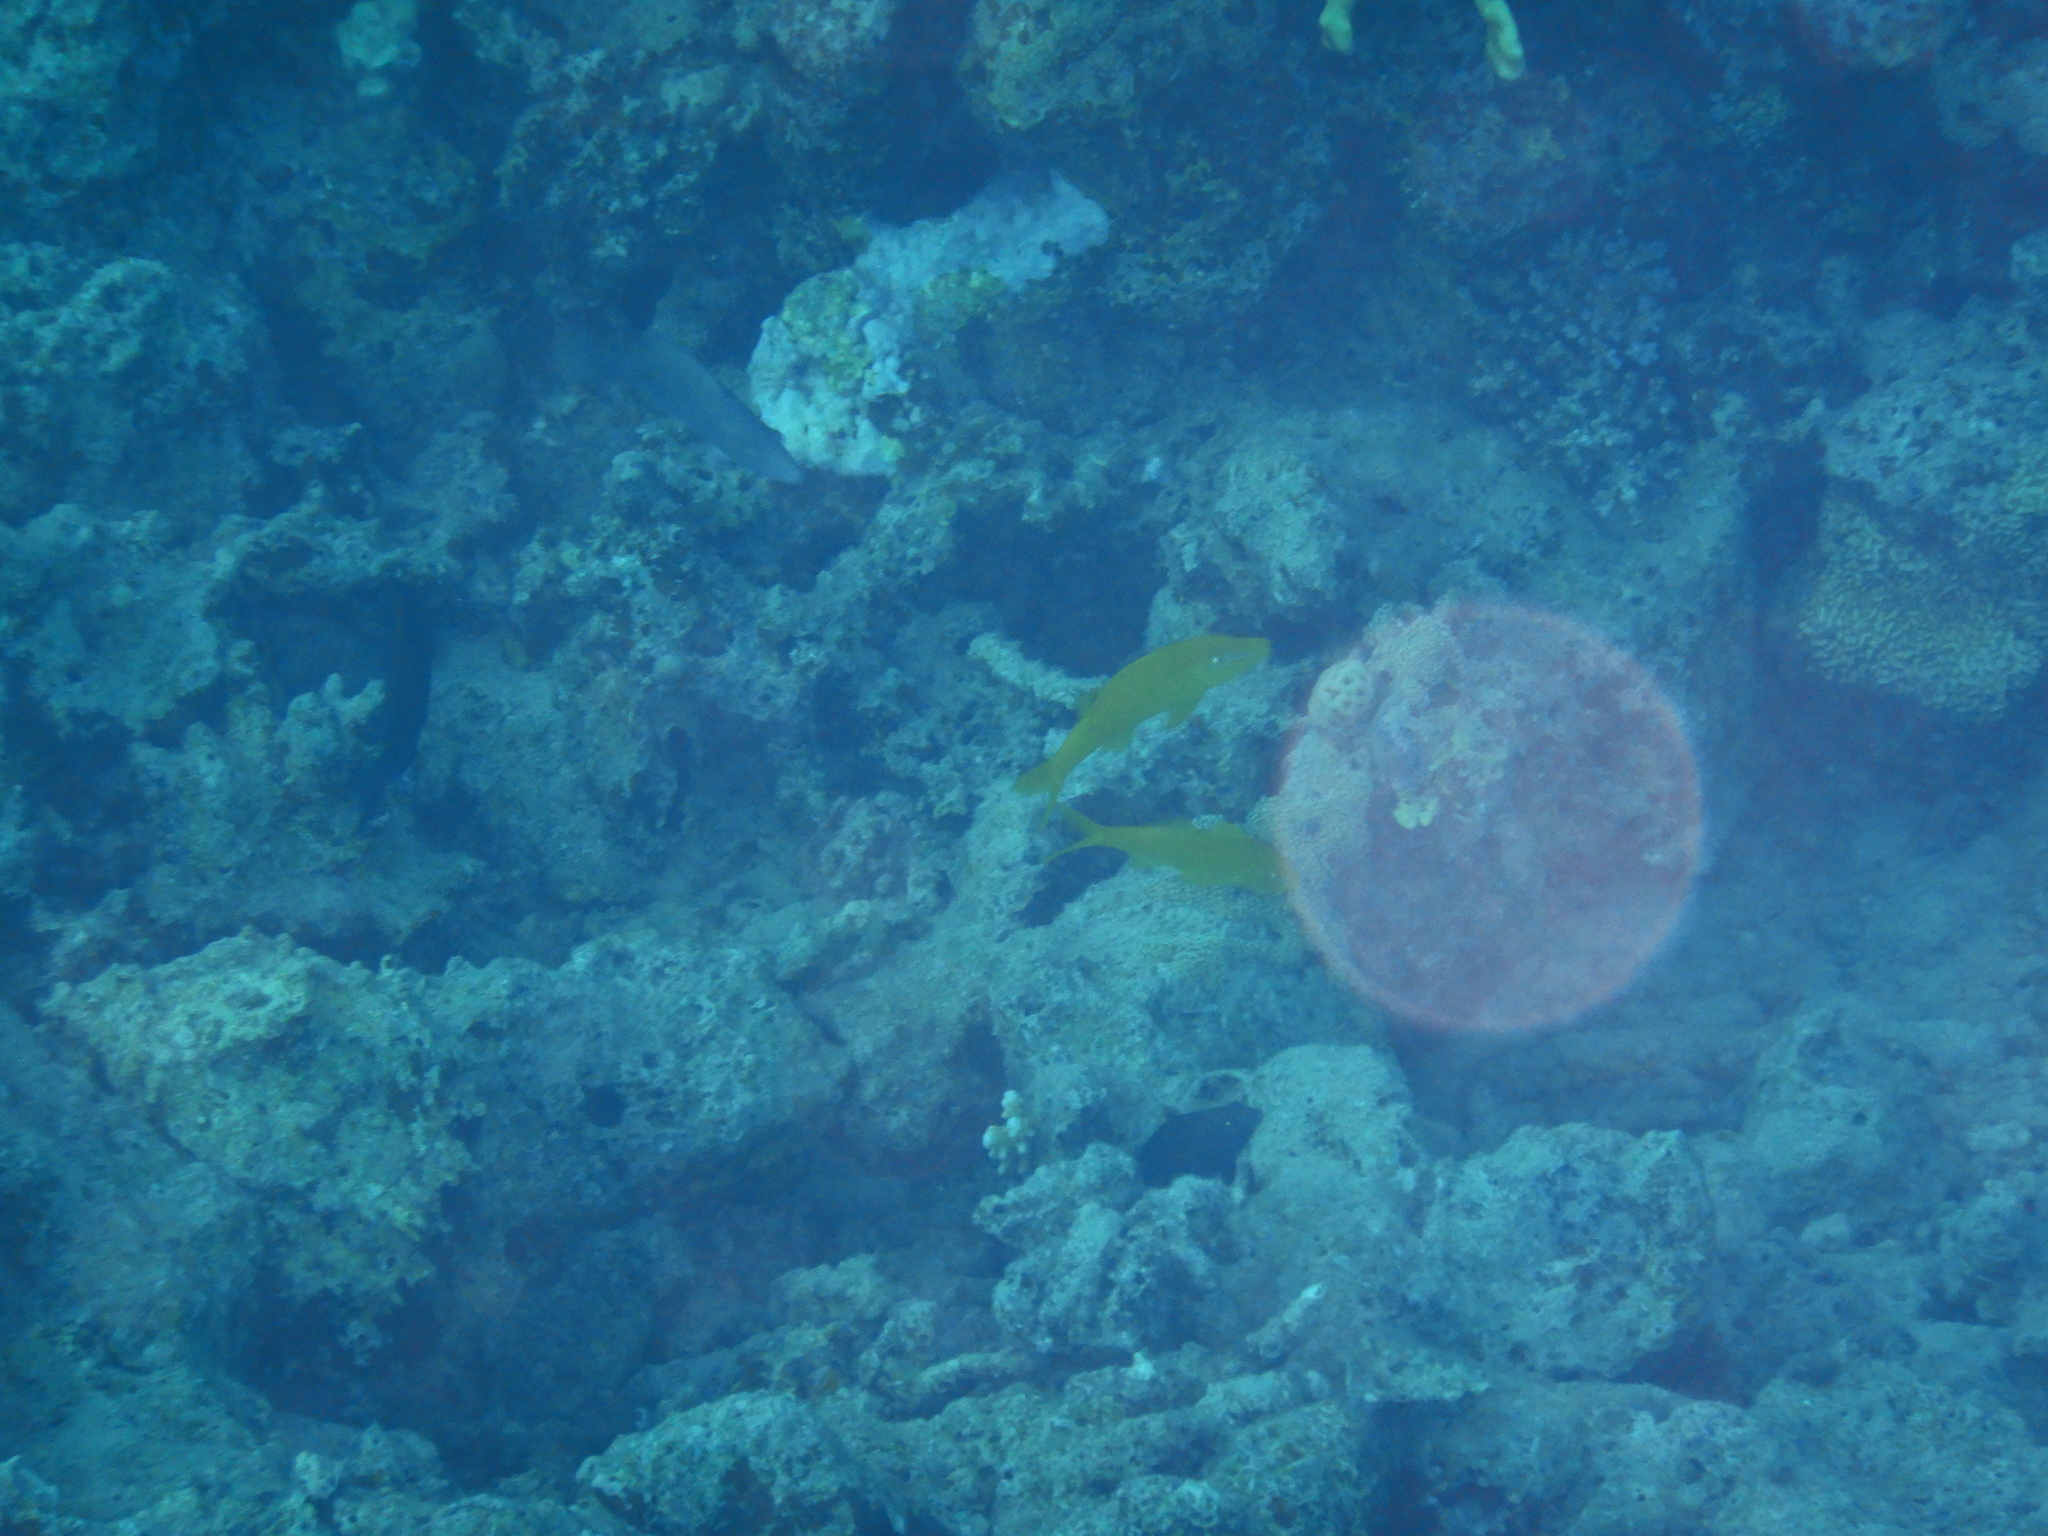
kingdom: Animalia
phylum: Chordata
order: Perciformes
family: Mullidae
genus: Parupeneus
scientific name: Parupeneus cyclostomus
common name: Goldsaddle goatfish
